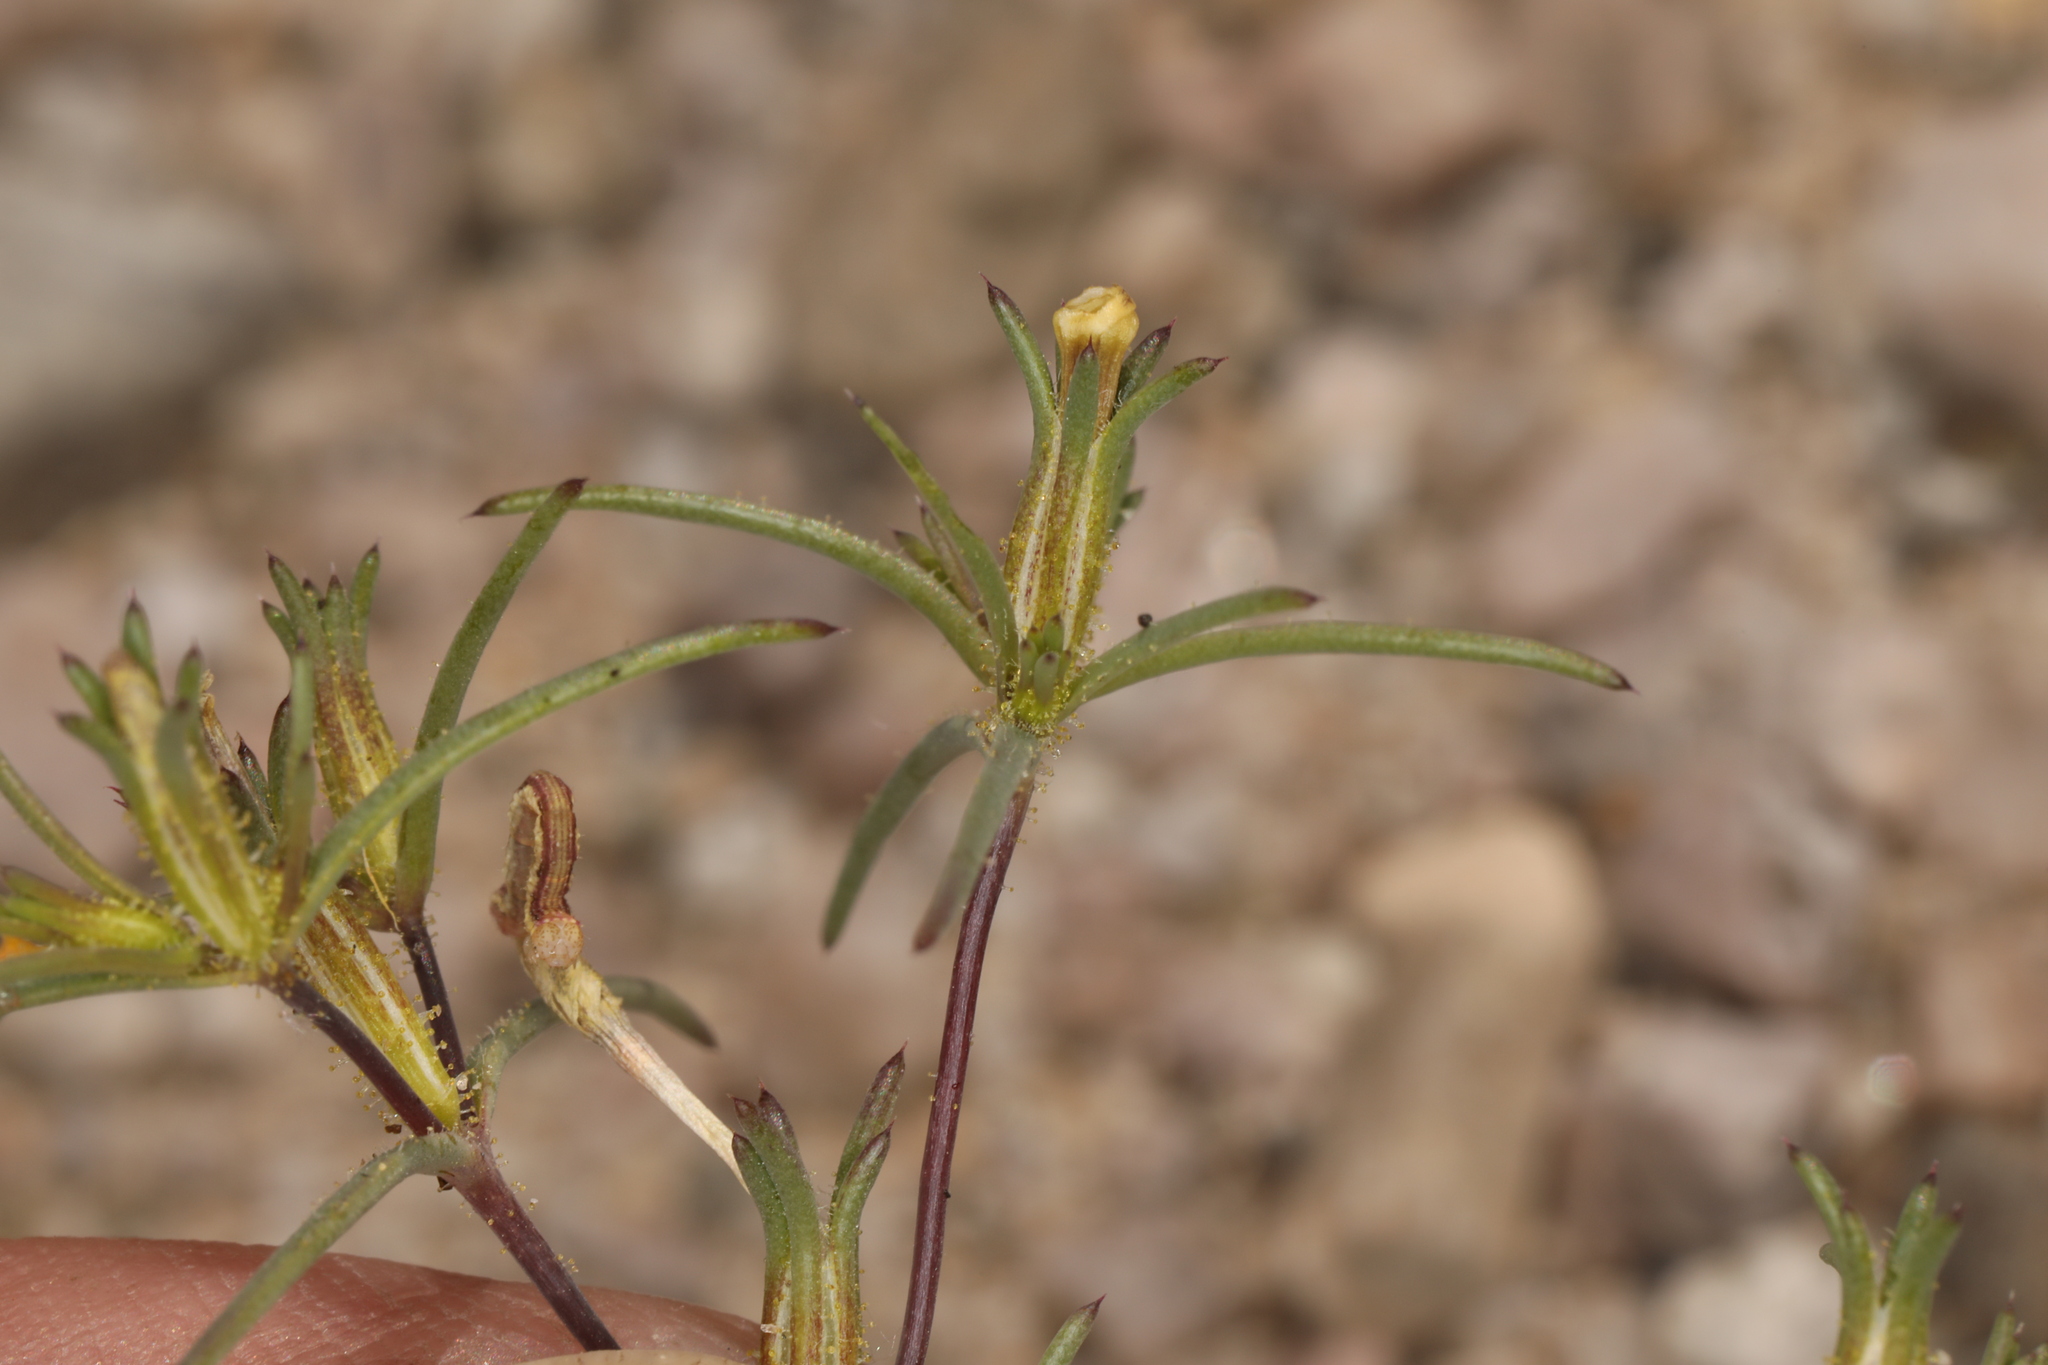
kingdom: Plantae
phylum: Tracheophyta
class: Magnoliopsida
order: Ericales
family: Polemoniaceae
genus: Linanthus
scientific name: Linanthus jonesii
